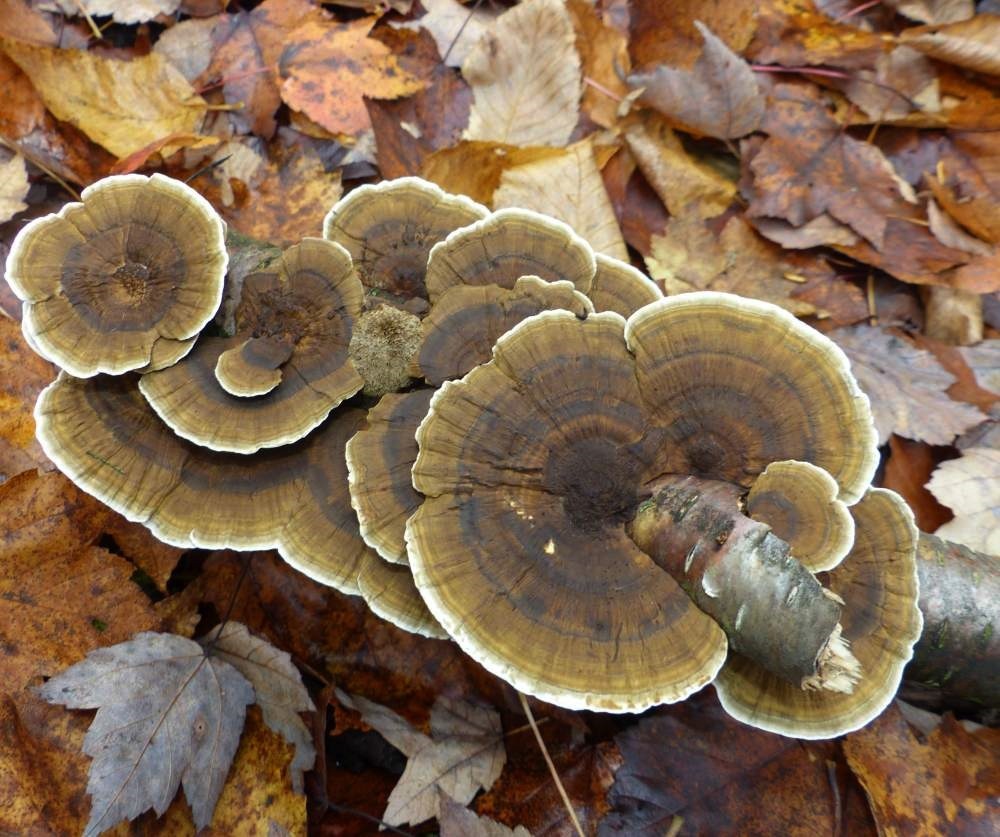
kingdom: Fungi
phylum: Basidiomycota
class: Agaricomycetes
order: Polyporales
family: Polyporaceae
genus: Daedaleopsis
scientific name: Daedaleopsis confragosa
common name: Blushing bracket
